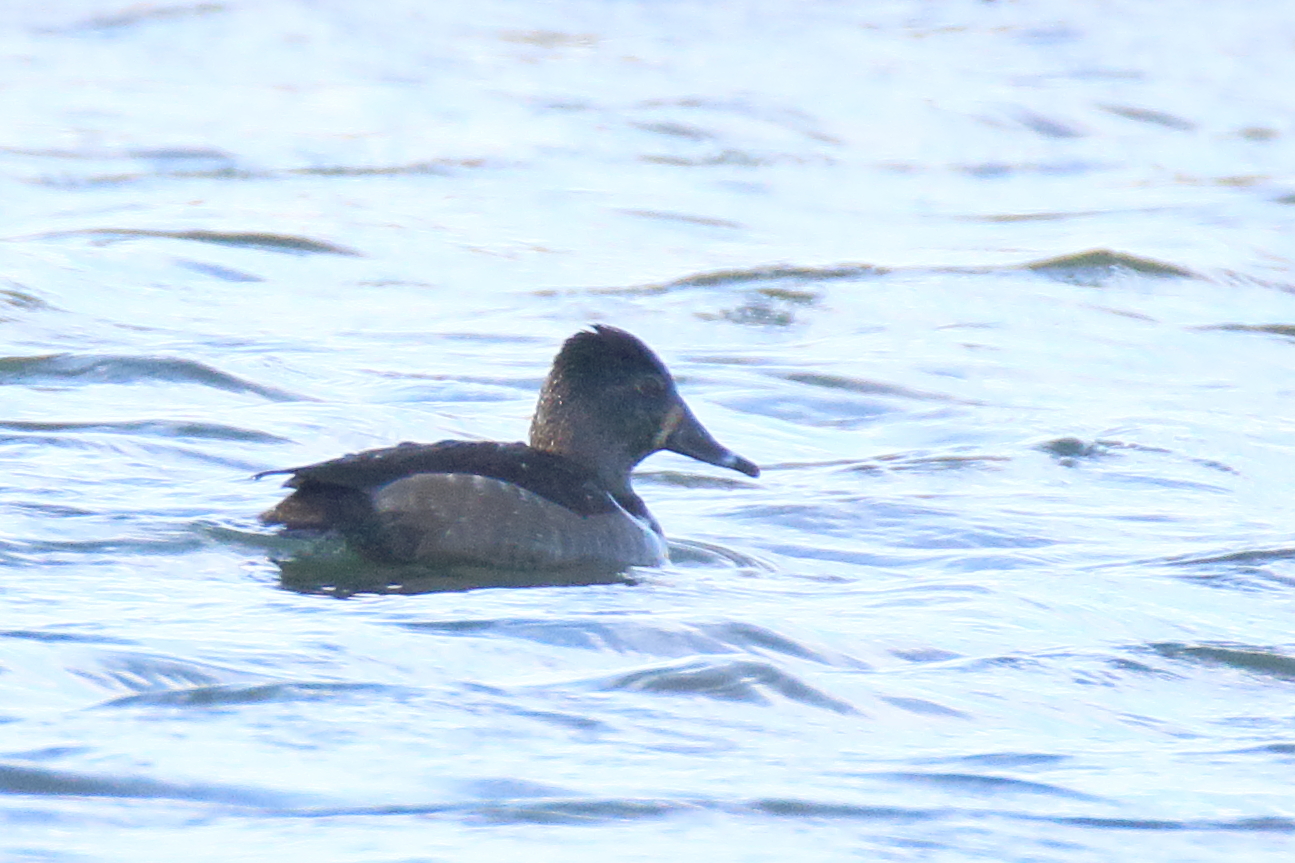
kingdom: Animalia
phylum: Chordata
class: Aves
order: Anseriformes
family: Anatidae
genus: Aythya
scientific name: Aythya collaris
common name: Ring-necked duck
